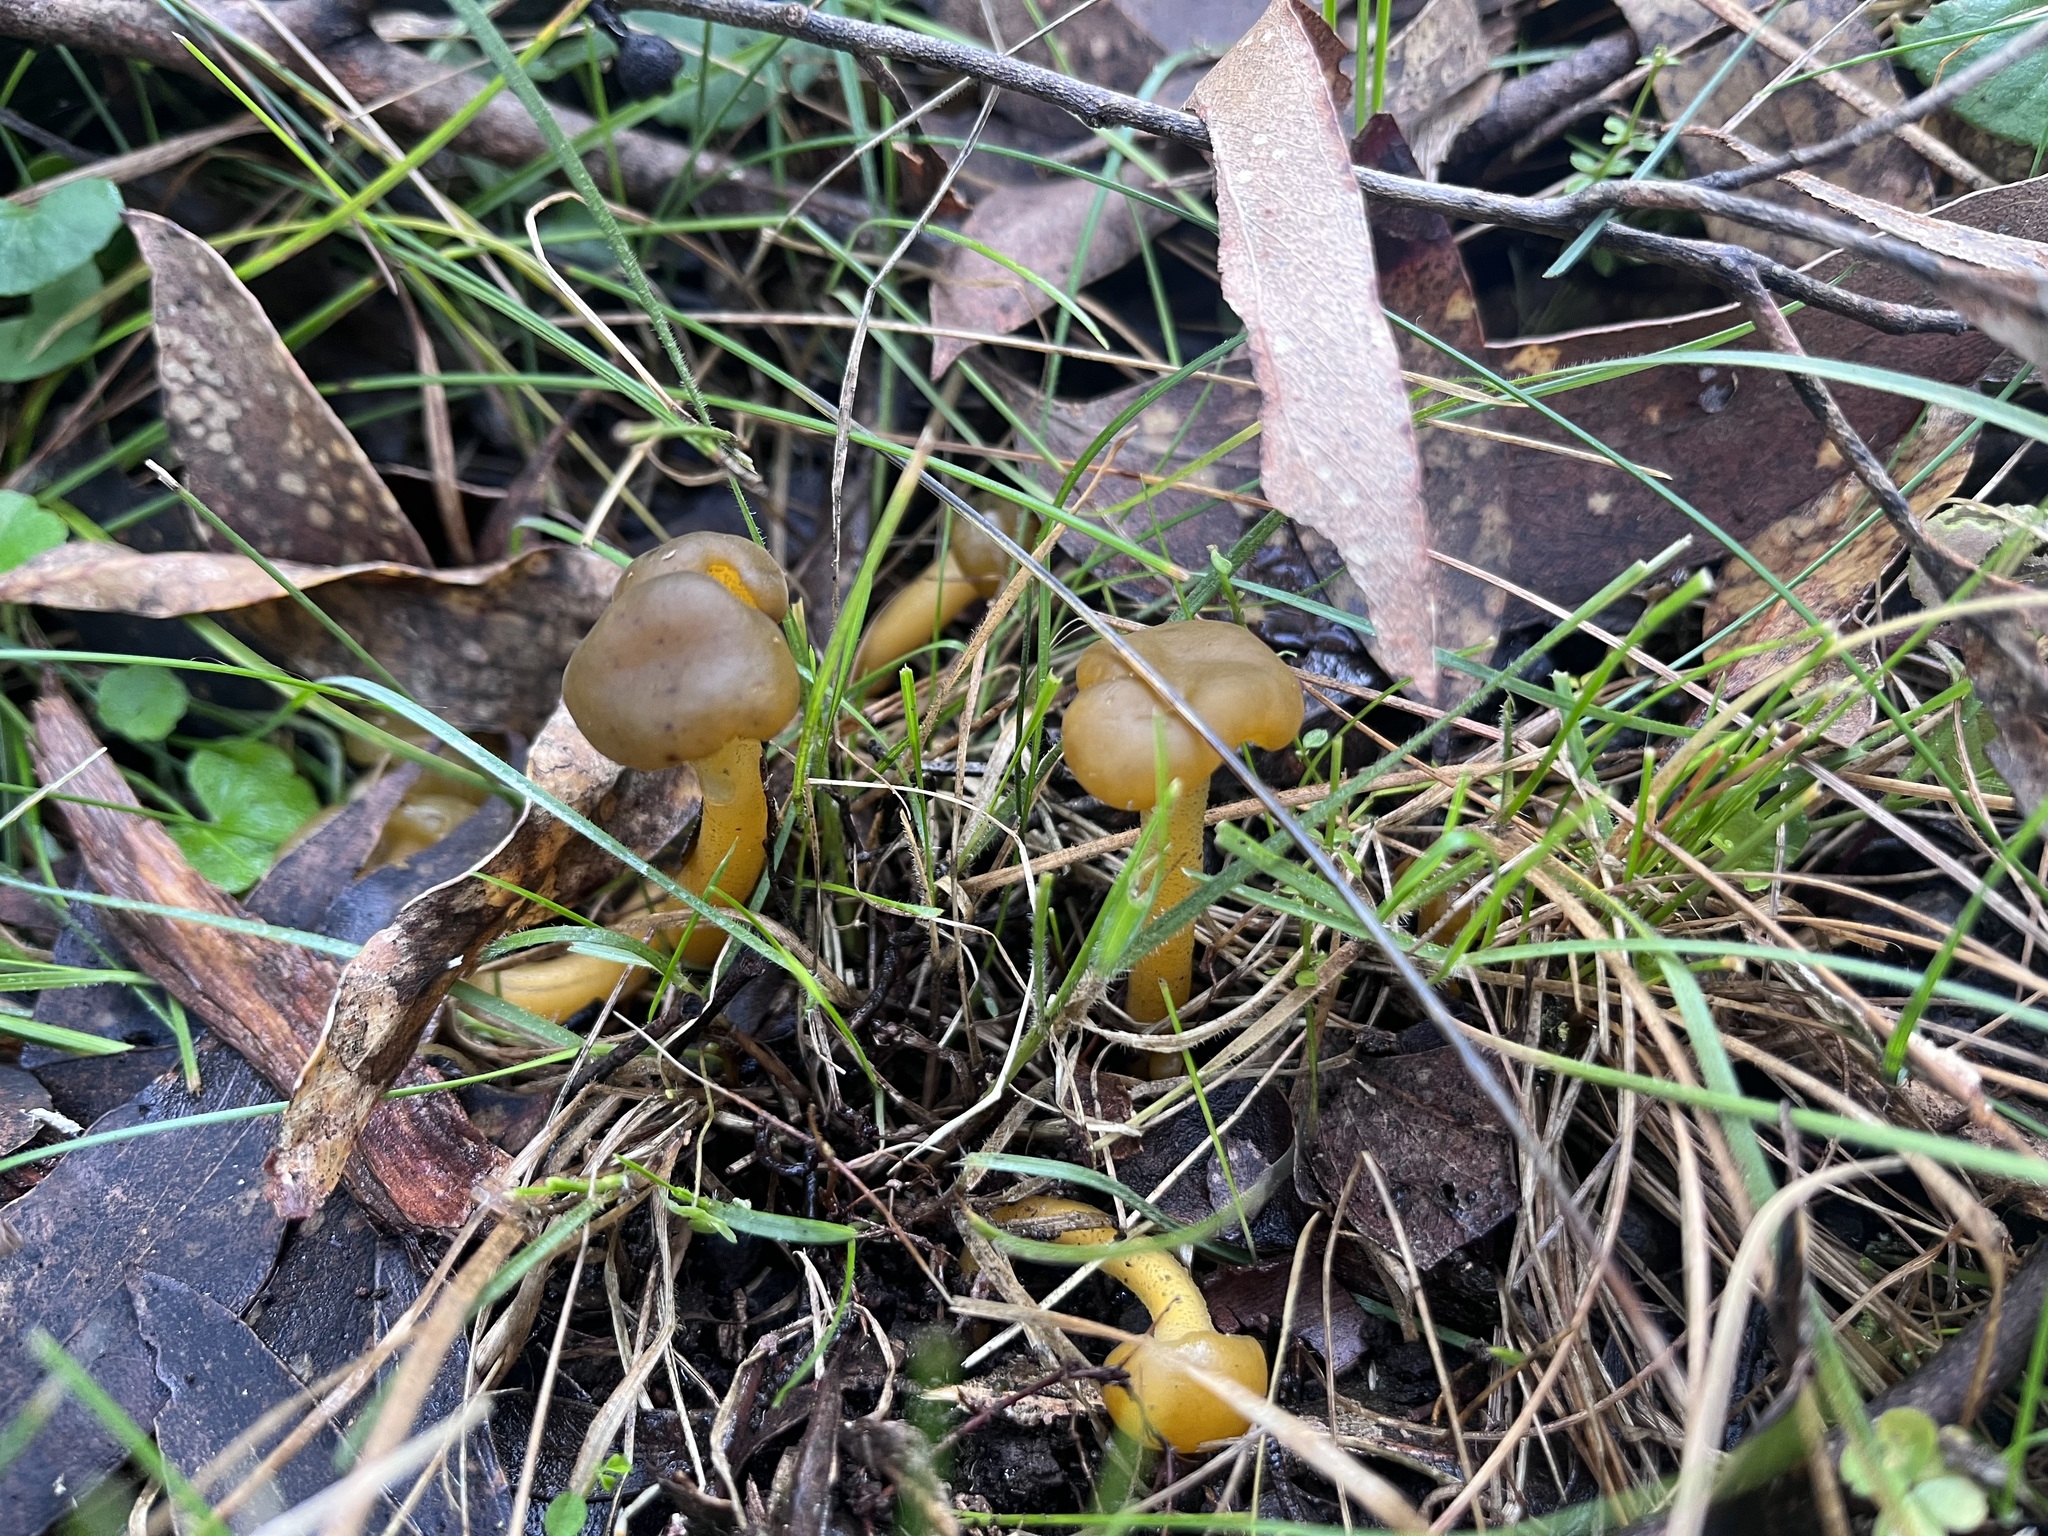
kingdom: Fungi
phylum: Ascomycota
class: Leotiomycetes
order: Leotiales
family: Leotiaceae
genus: Leotia
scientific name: Leotia lubrica
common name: Jellybaby
